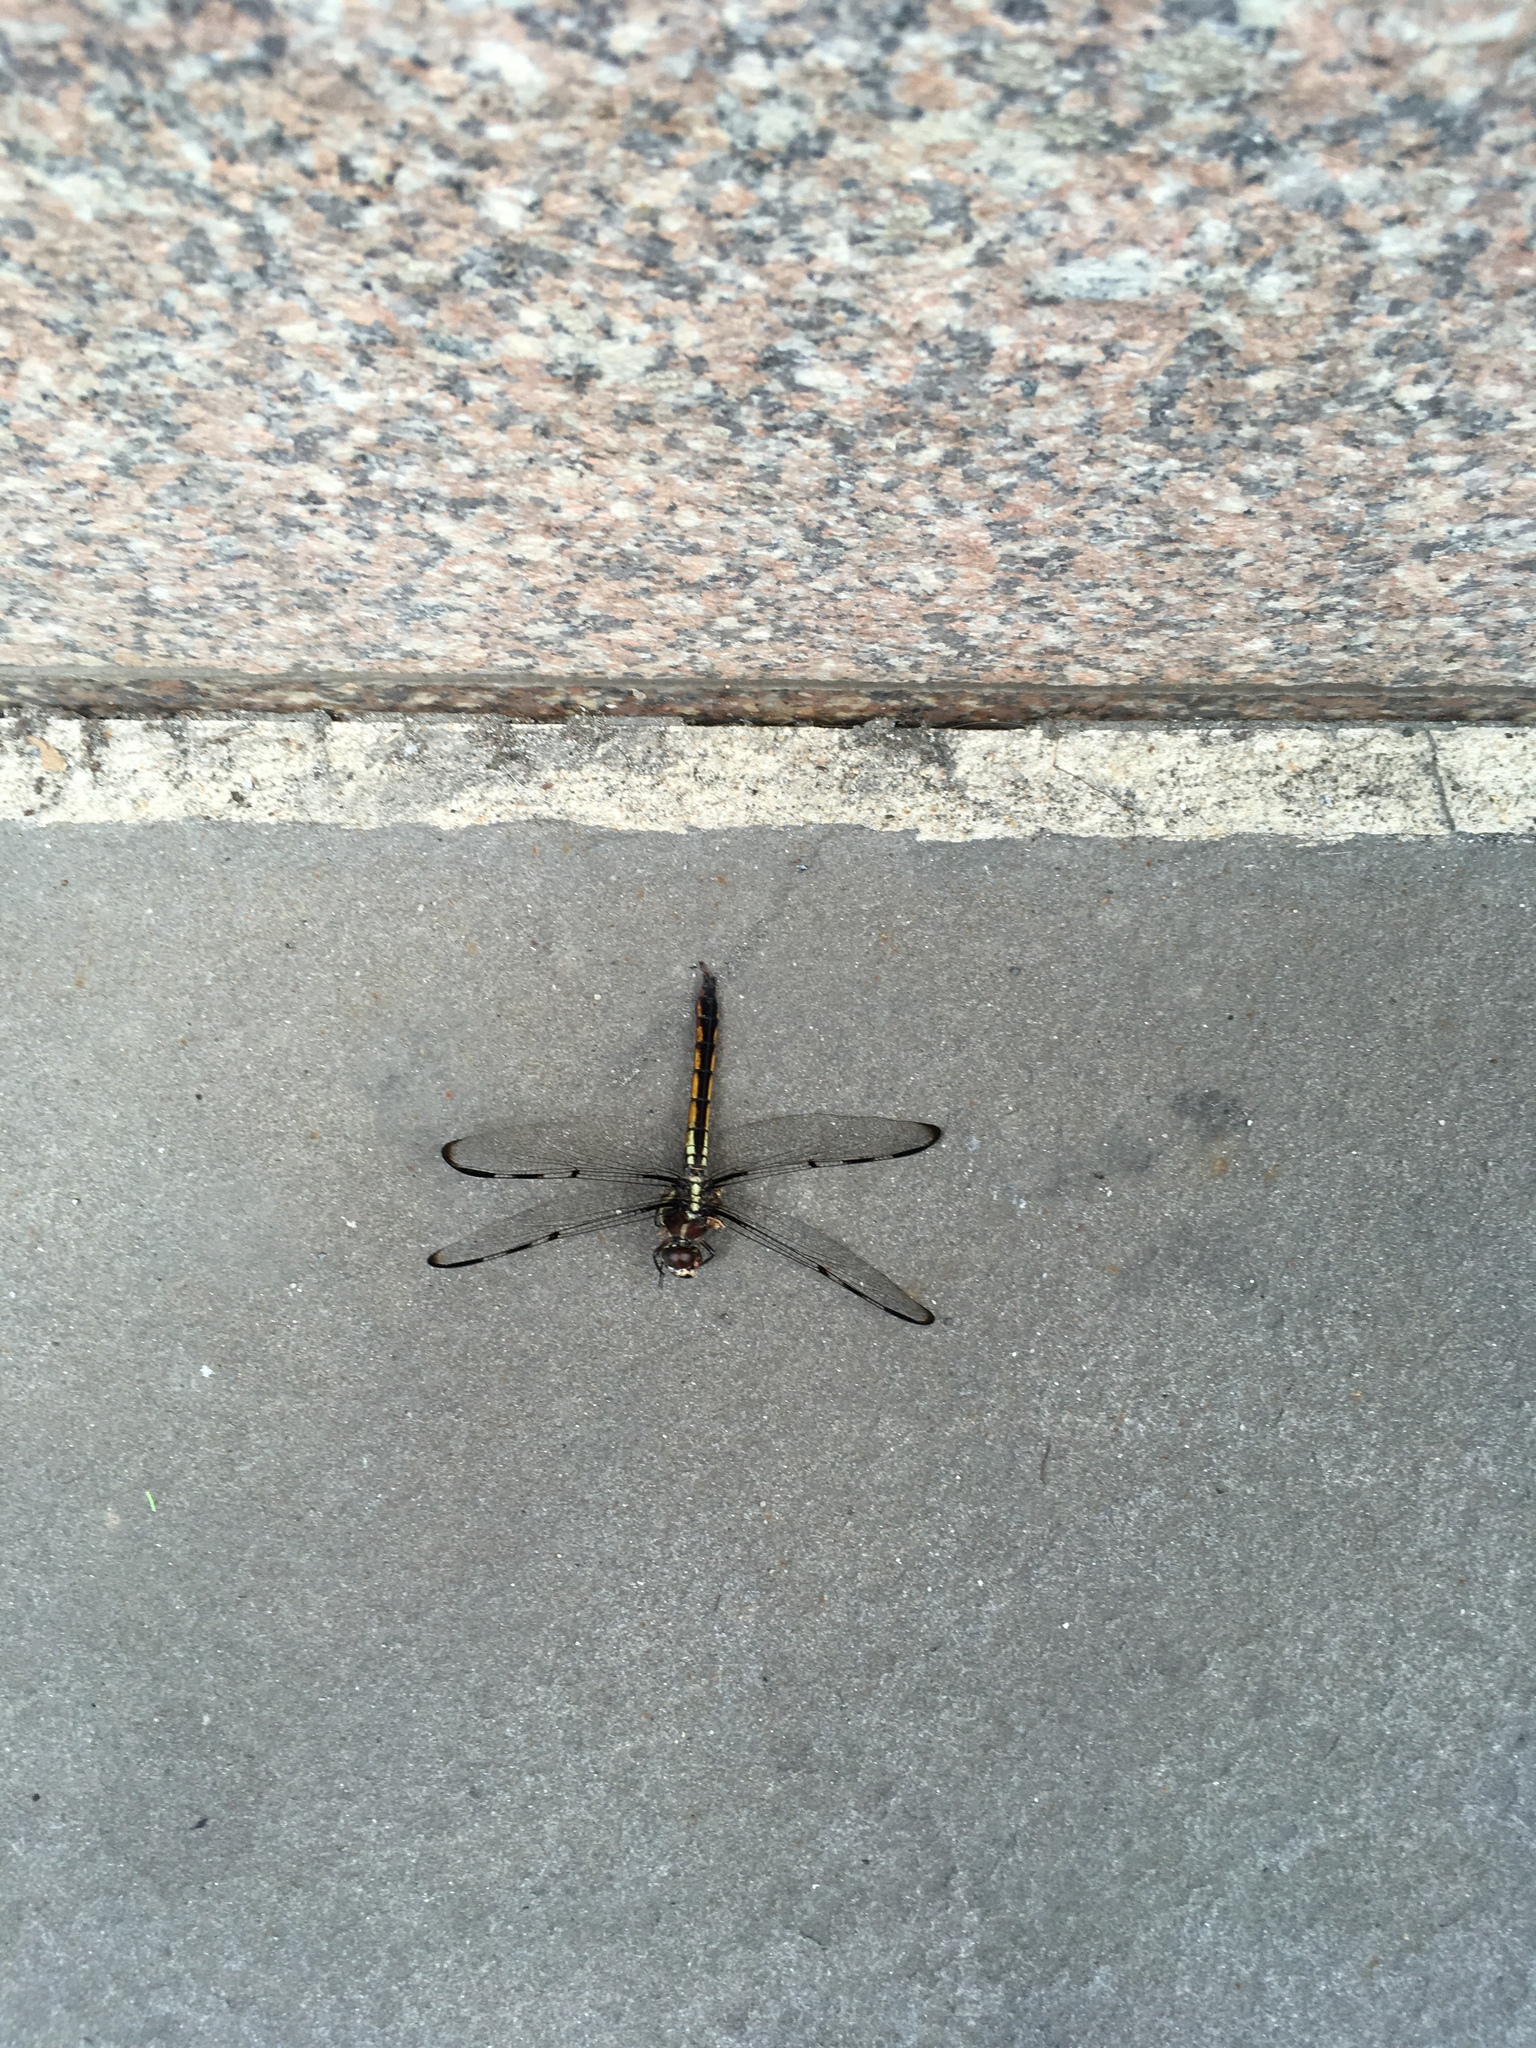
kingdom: Animalia
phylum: Arthropoda
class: Insecta
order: Odonata
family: Libellulidae
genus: Libellula
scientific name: Libellula axilena
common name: Bar-winged skimmer
